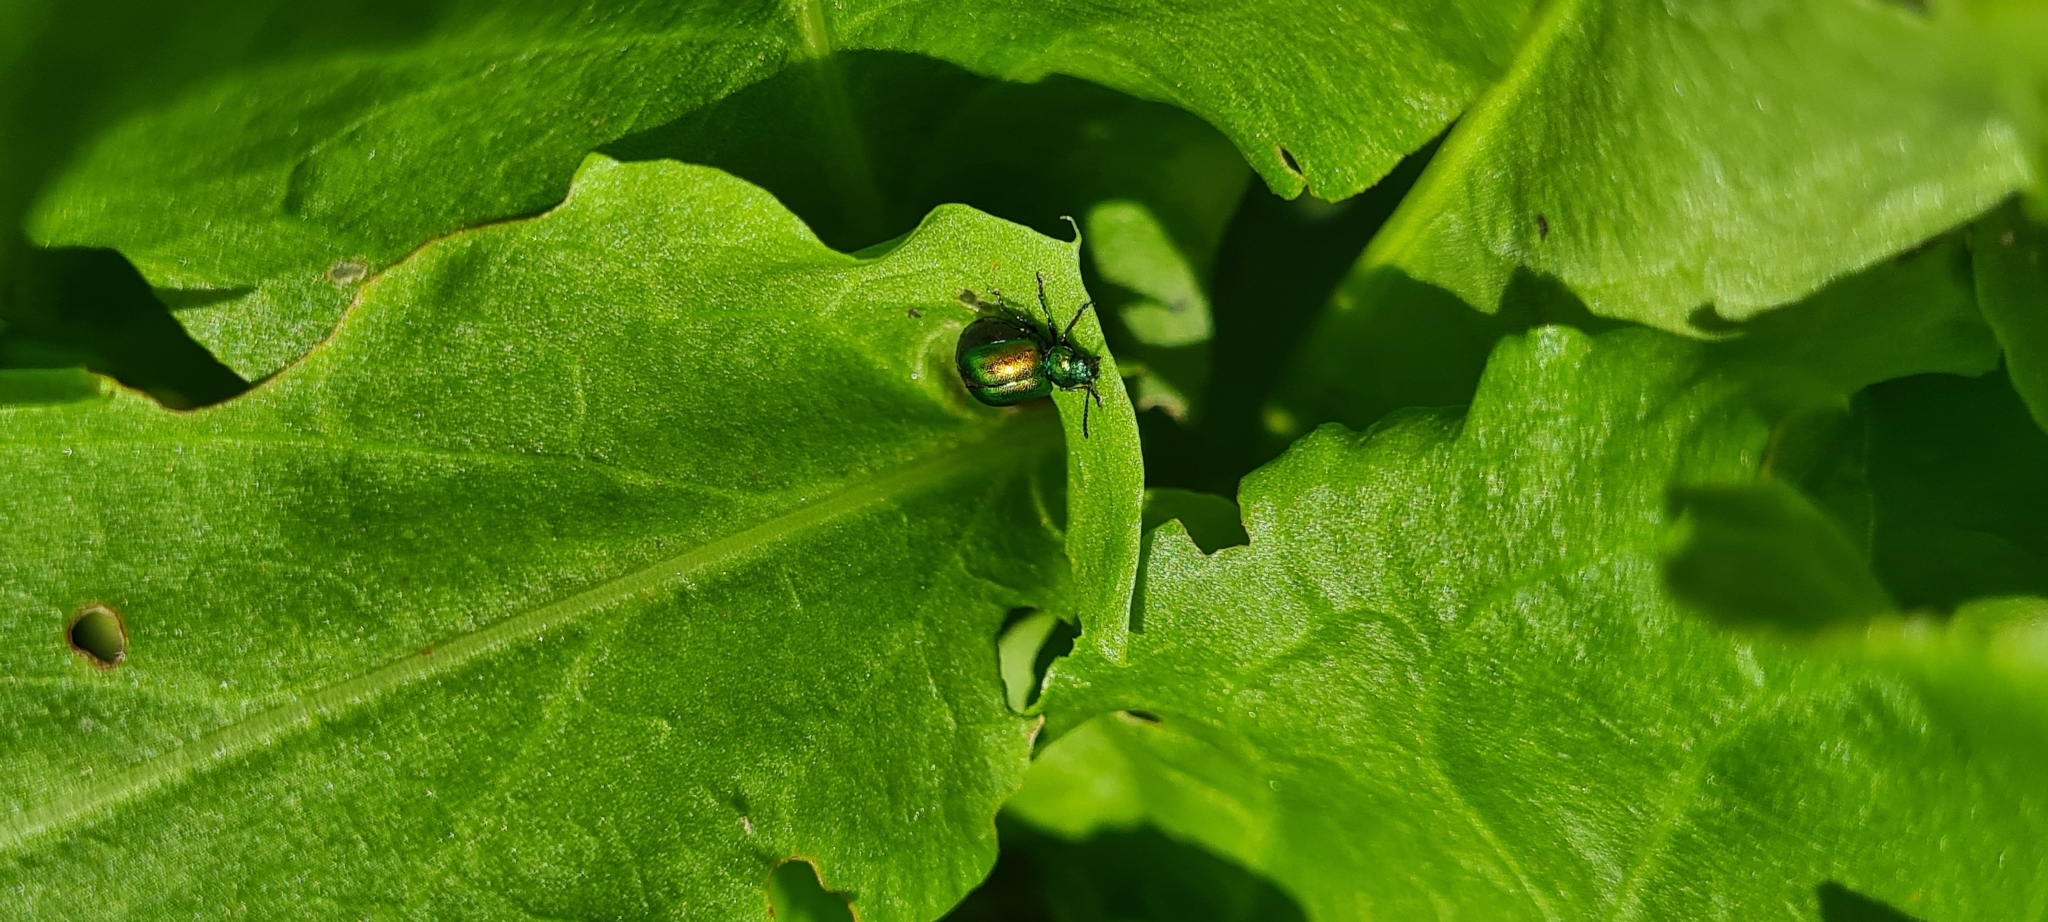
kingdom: Animalia
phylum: Arthropoda
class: Insecta
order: Coleoptera
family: Chrysomelidae
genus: Gastrophysa
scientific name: Gastrophysa viridula
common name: Green dock beetle
